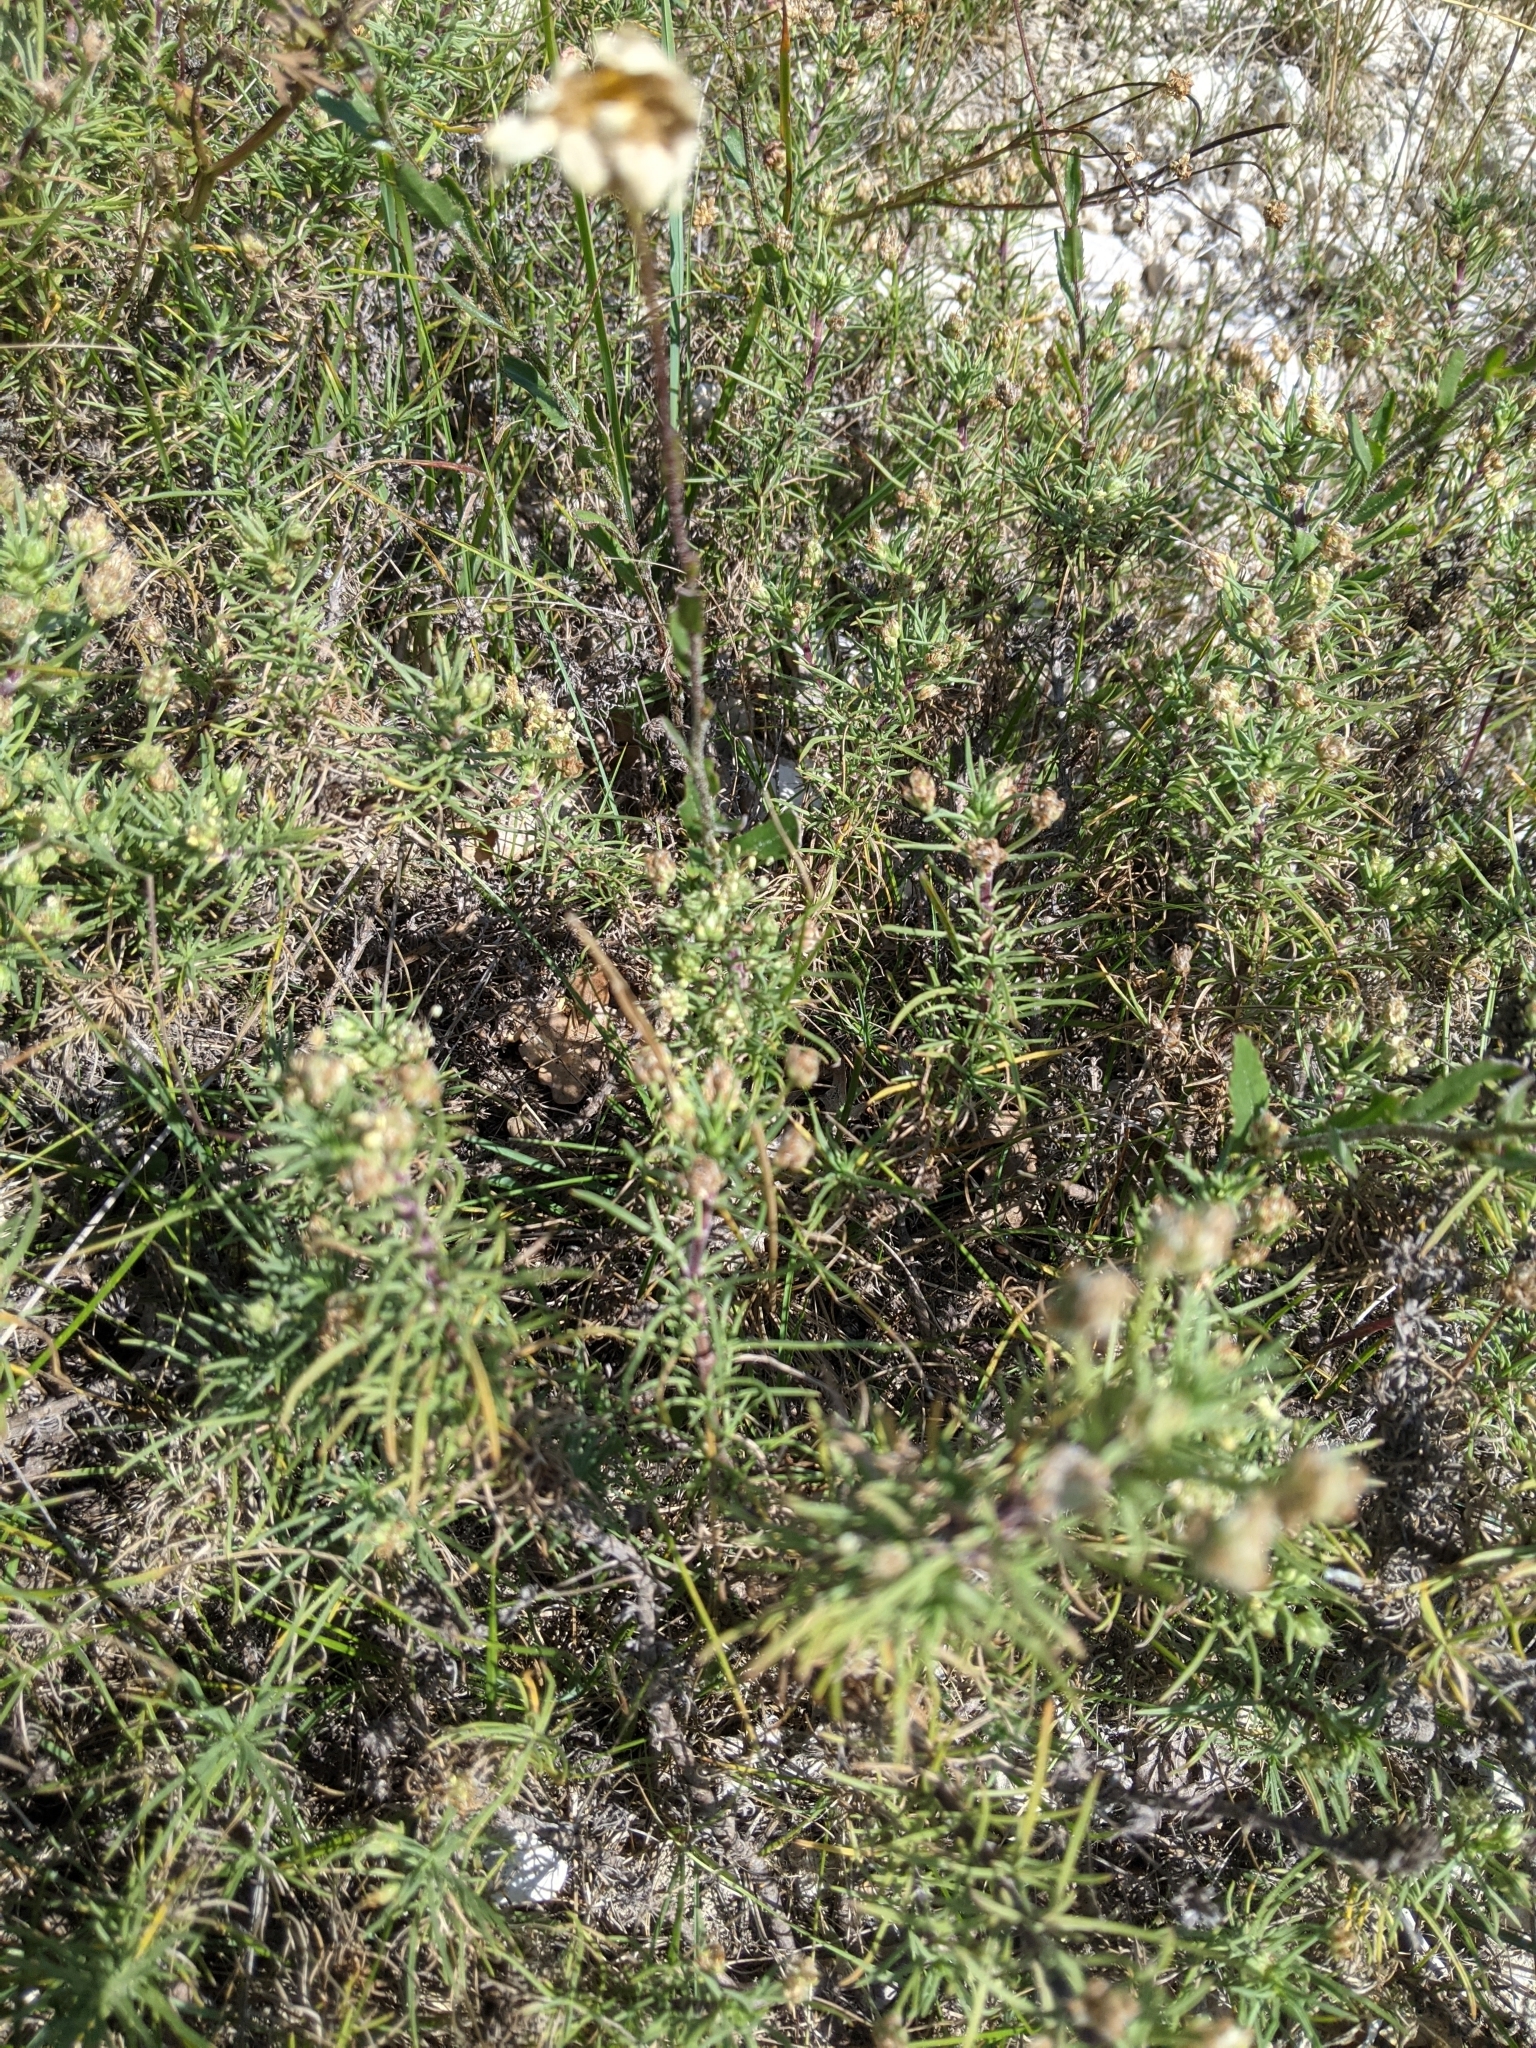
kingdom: Plantae
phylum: Tracheophyta
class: Magnoliopsida
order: Lamiales
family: Plantaginaceae
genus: Plantago
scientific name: Plantago sempervirens
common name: Shrubby plantain
